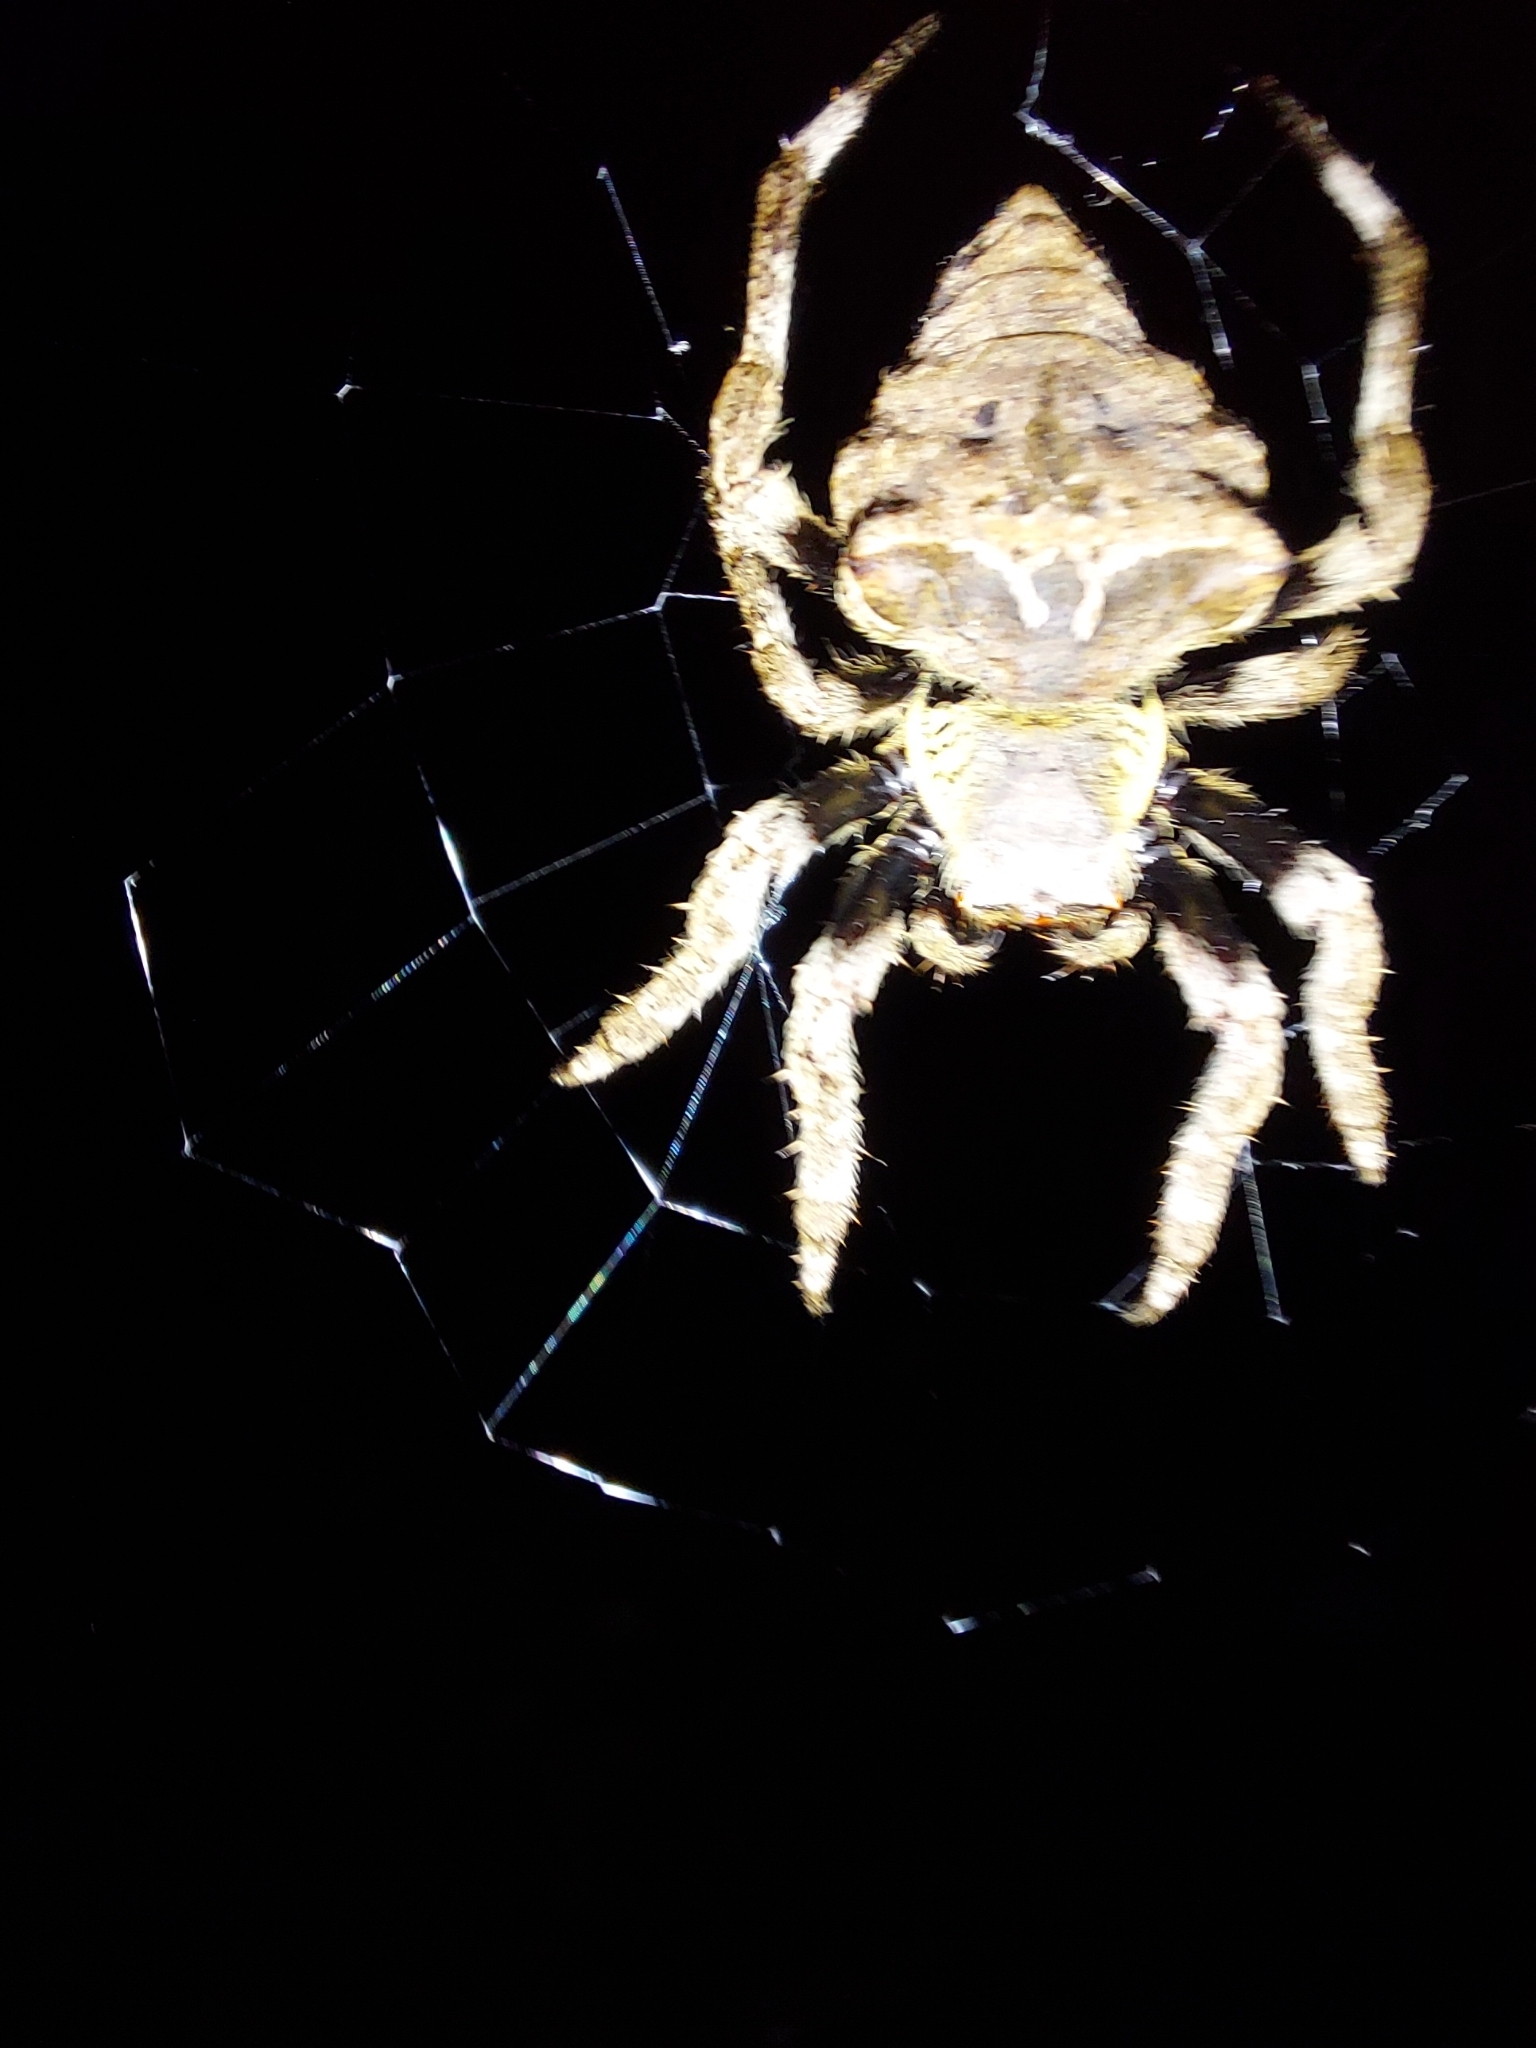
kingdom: Animalia
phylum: Arthropoda
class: Arachnida
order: Araneae
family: Araneidae
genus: Parawixia
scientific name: Parawixia dehaani
